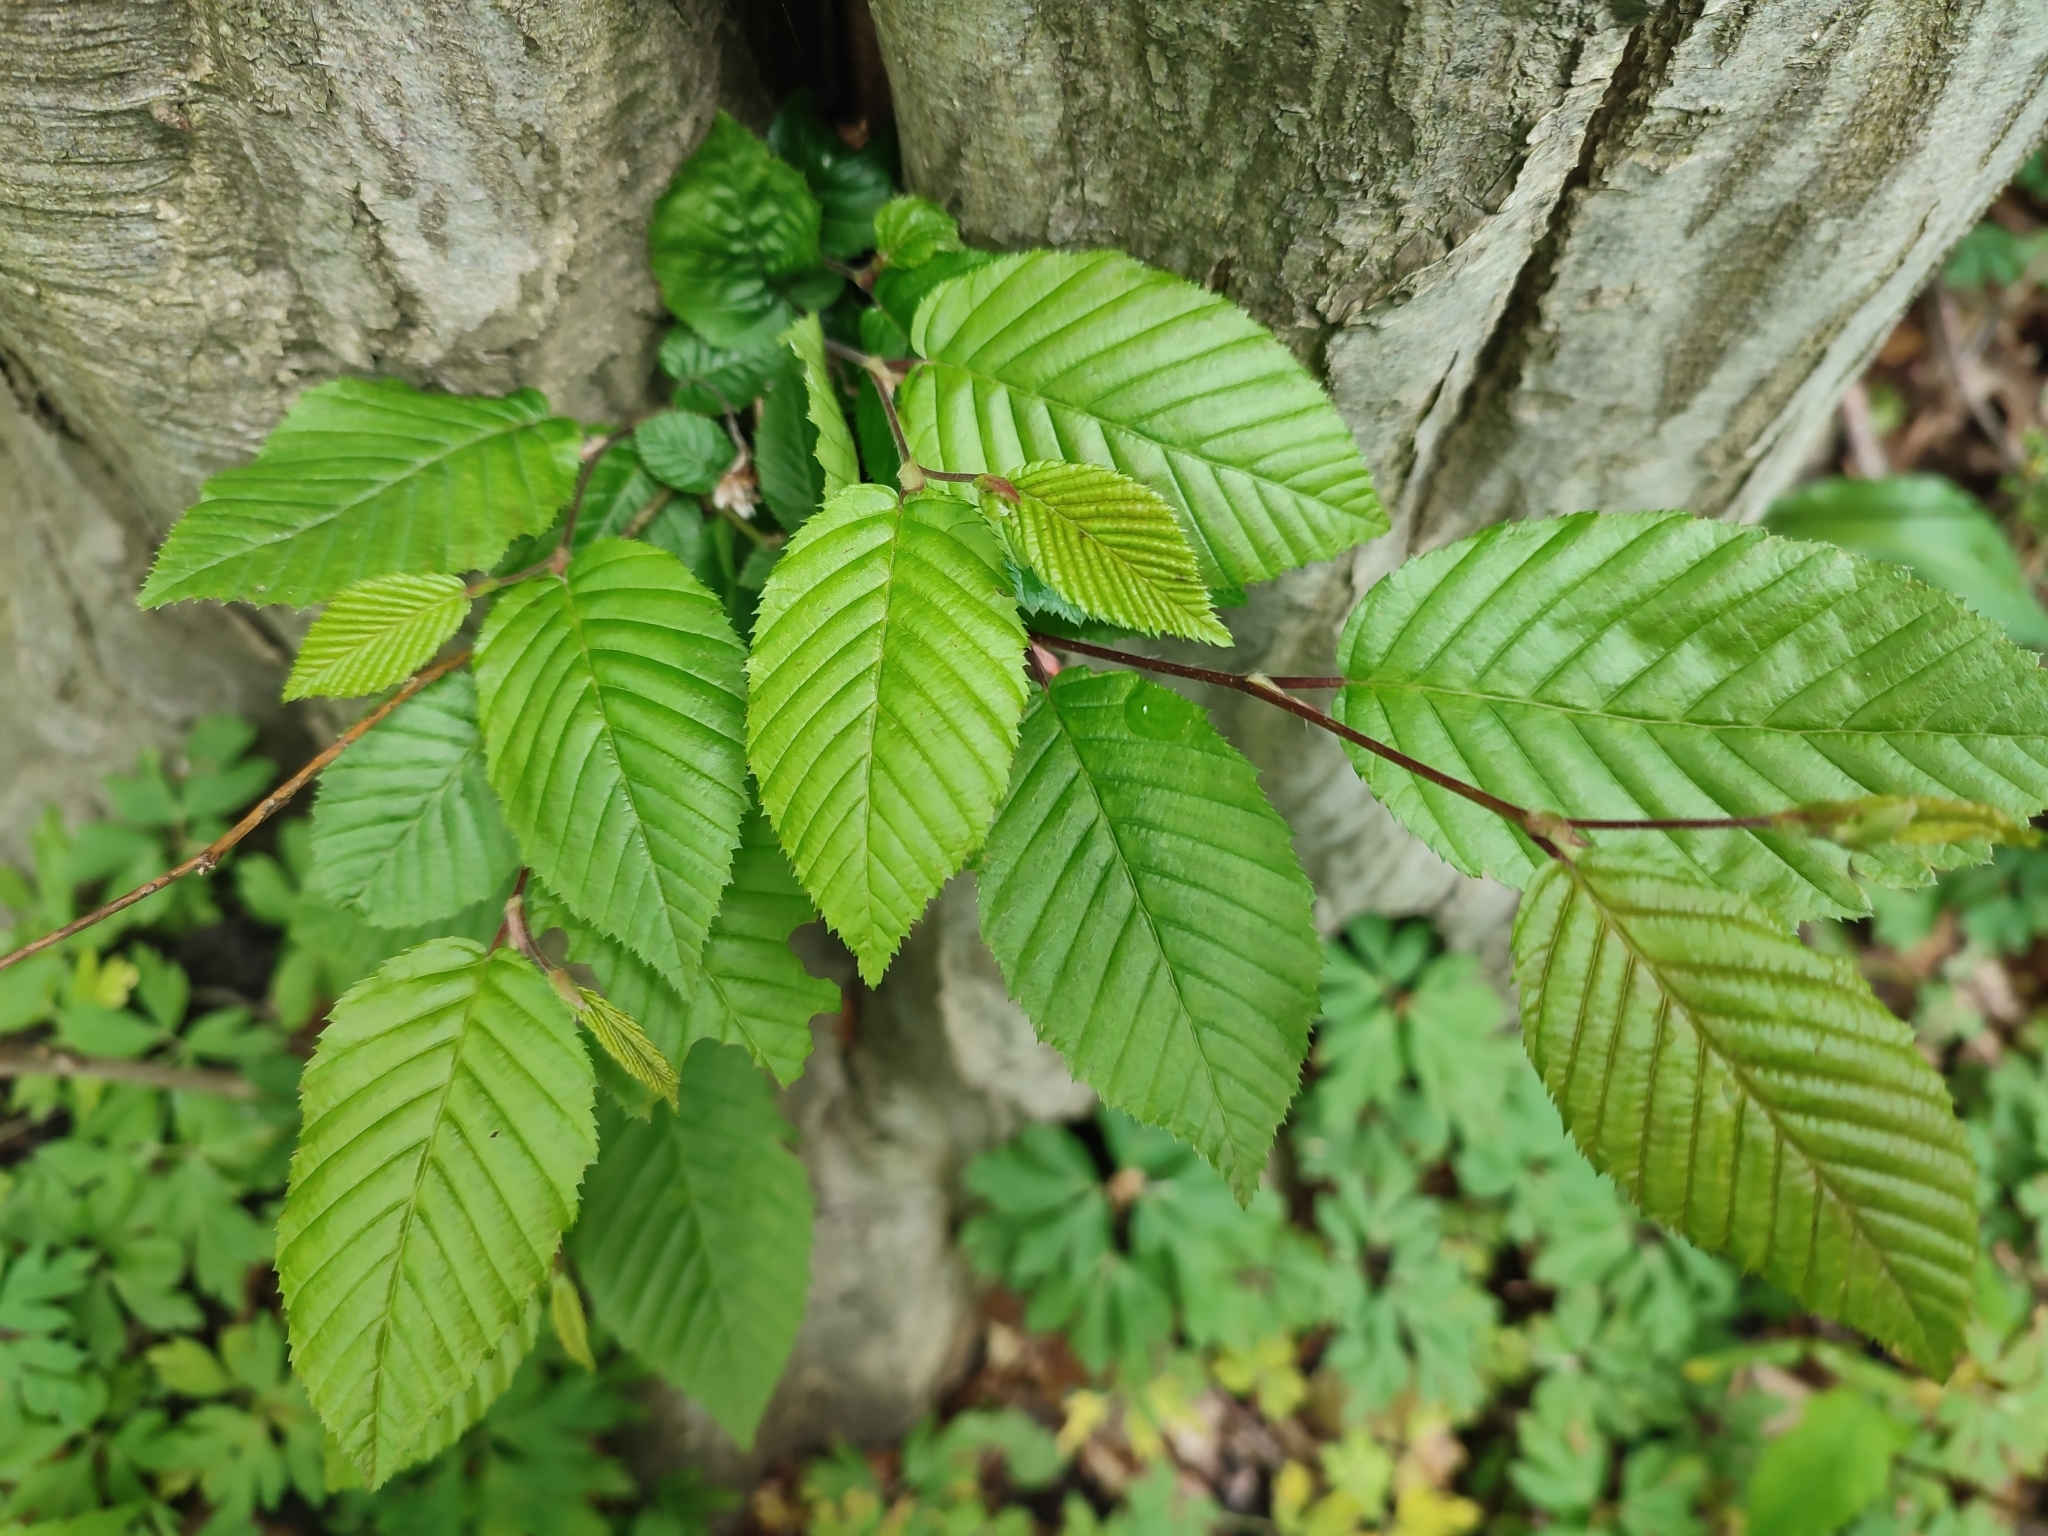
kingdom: Plantae
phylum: Tracheophyta
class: Magnoliopsida
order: Fagales
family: Betulaceae
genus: Carpinus
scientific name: Carpinus betulus
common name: Hornbeam
